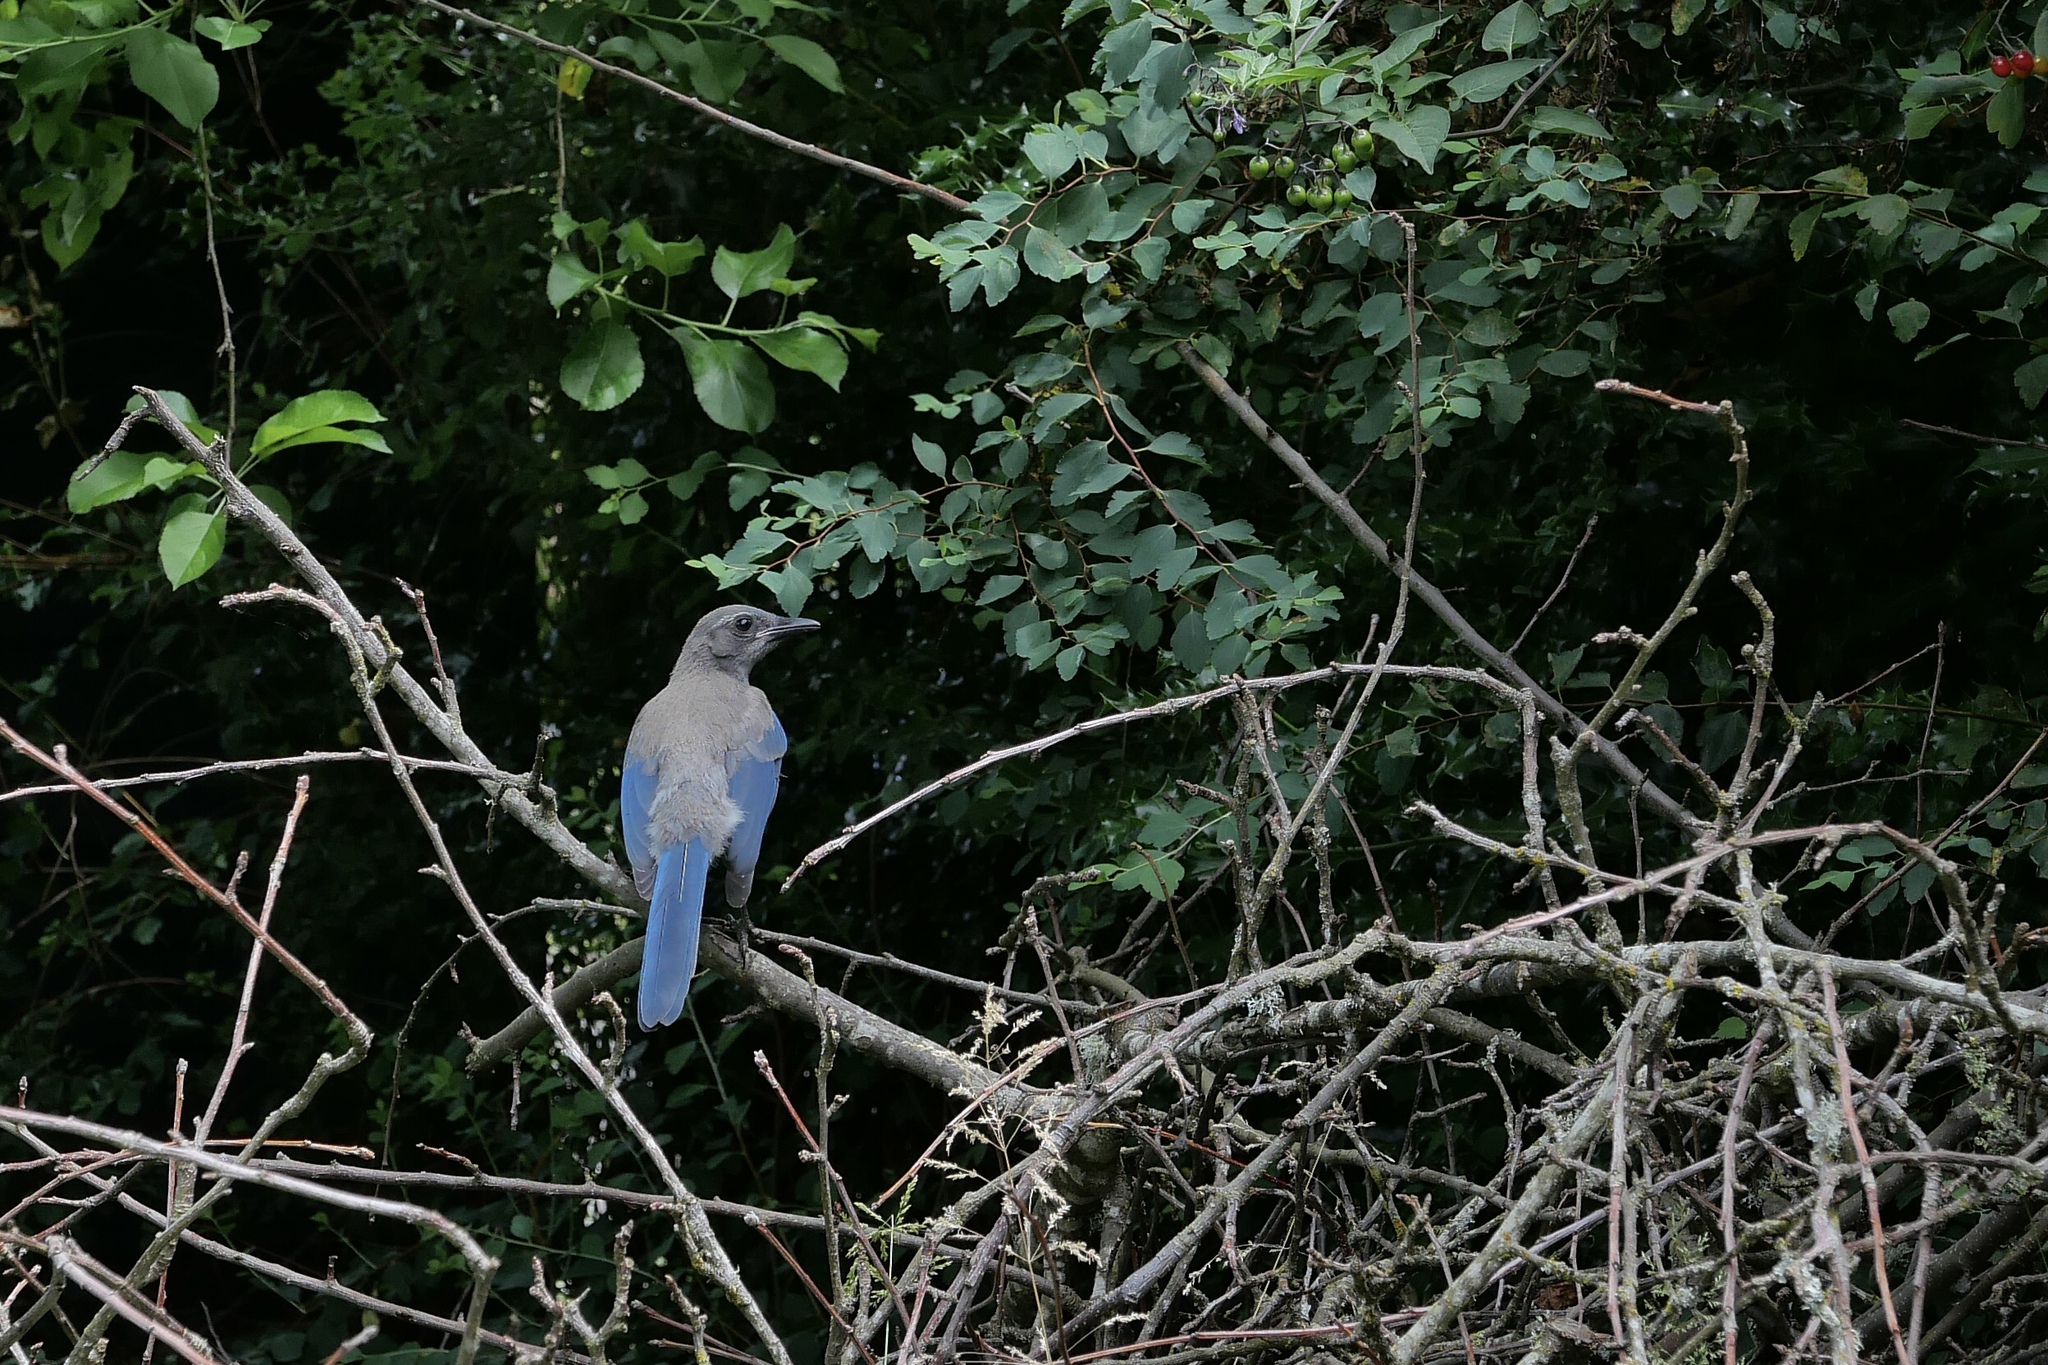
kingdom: Animalia
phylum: Chordata
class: Aves
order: Passeriformes
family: Corvidae
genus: Aphelocoma
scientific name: Aphelocoma californica
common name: California scrub-jay
